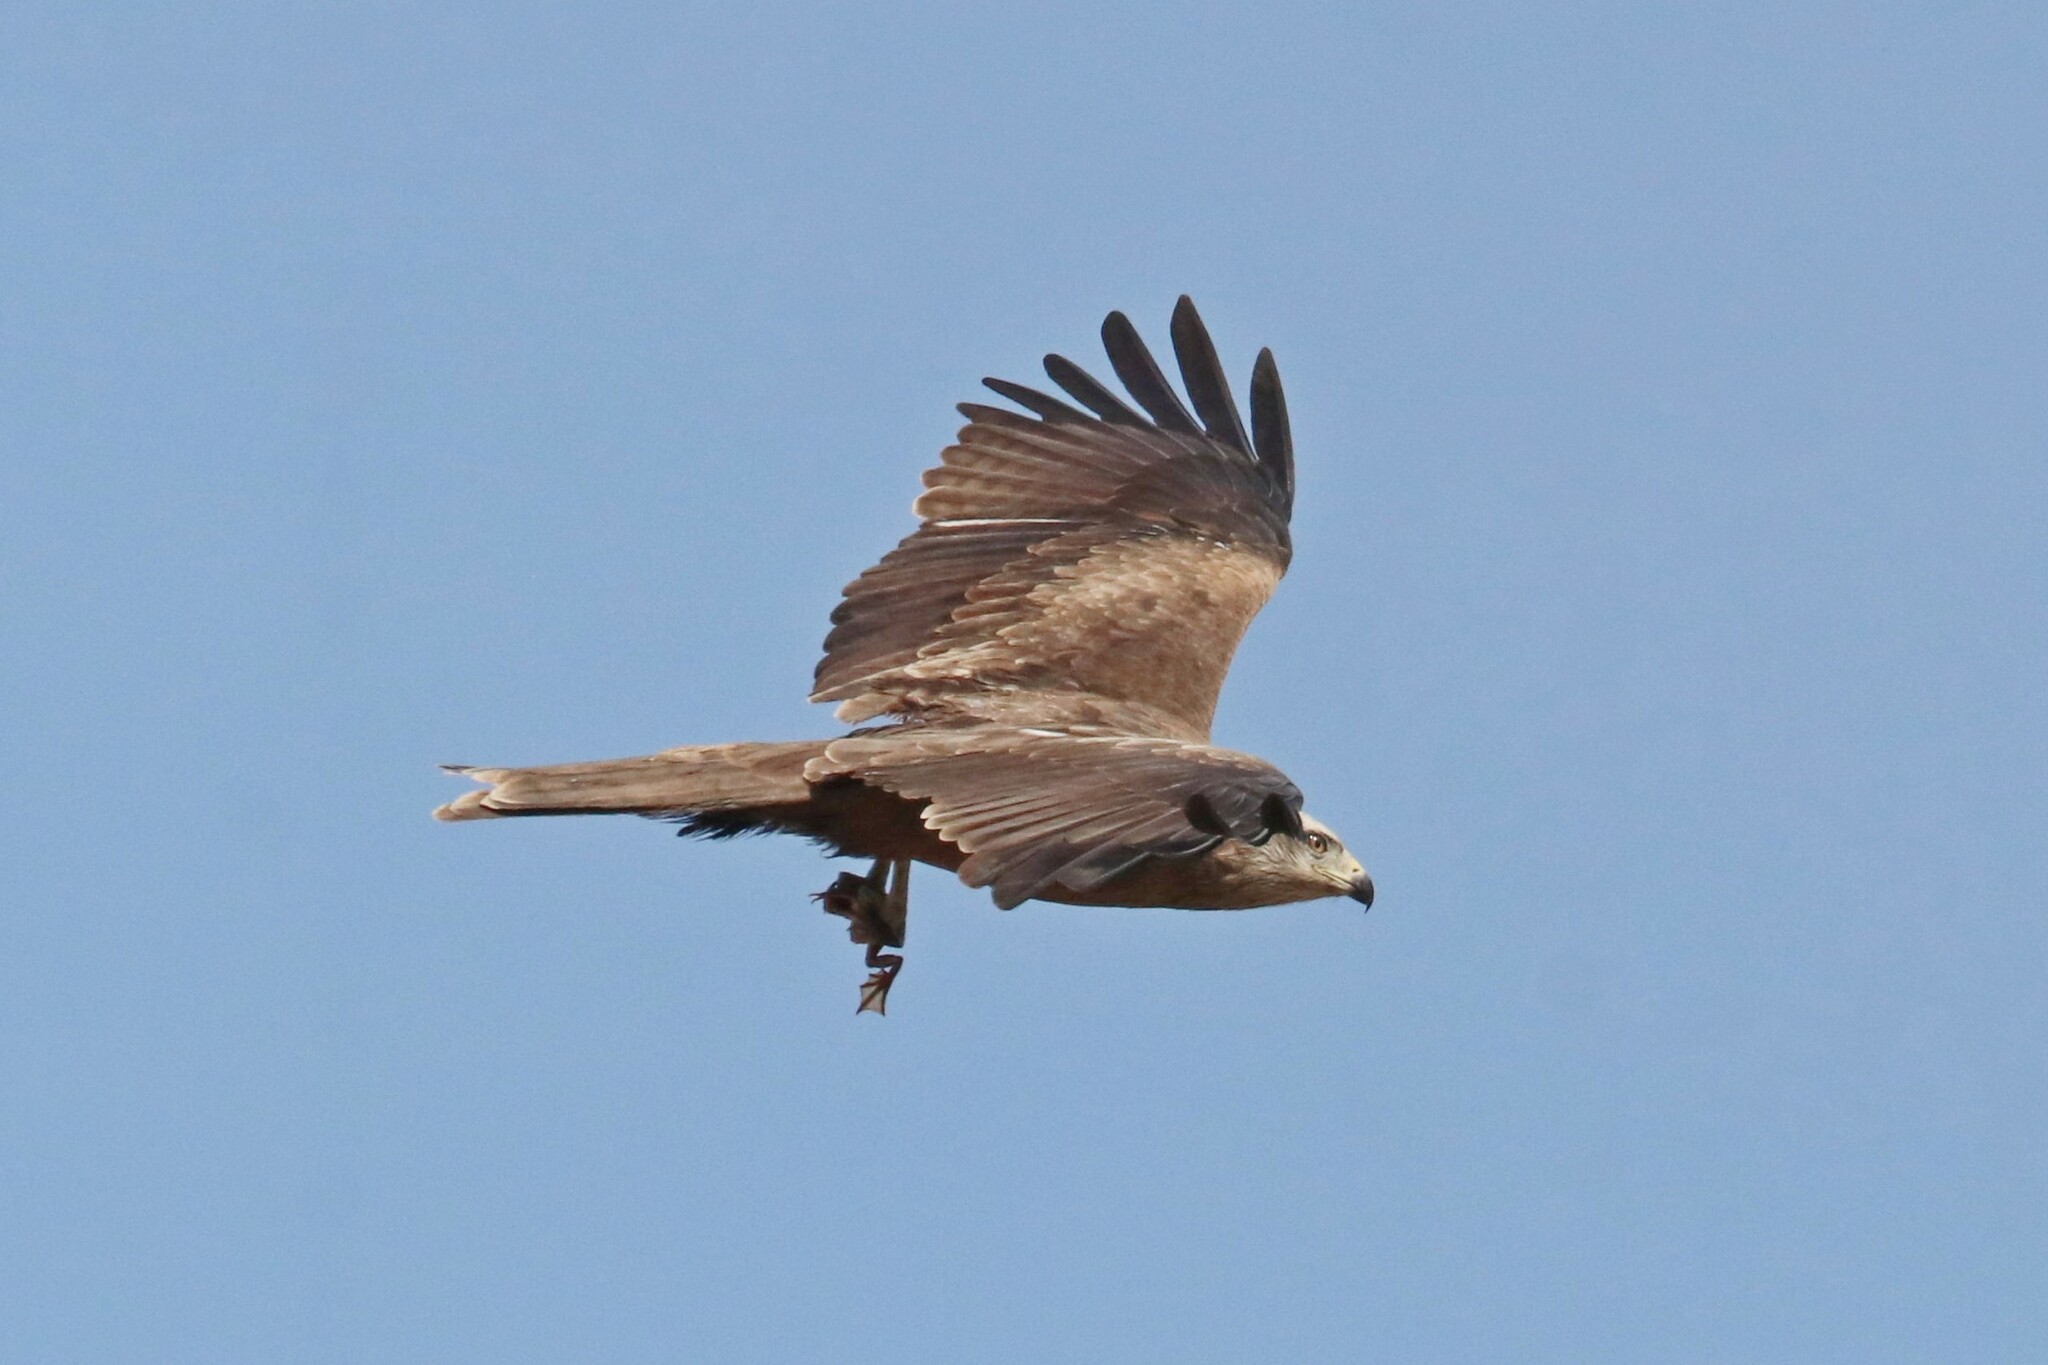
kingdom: Animalia
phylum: Chordata
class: Aves
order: Accipitriformes
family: Accipitridae
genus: Milvus
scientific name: Milvus migrans
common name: Black kite
